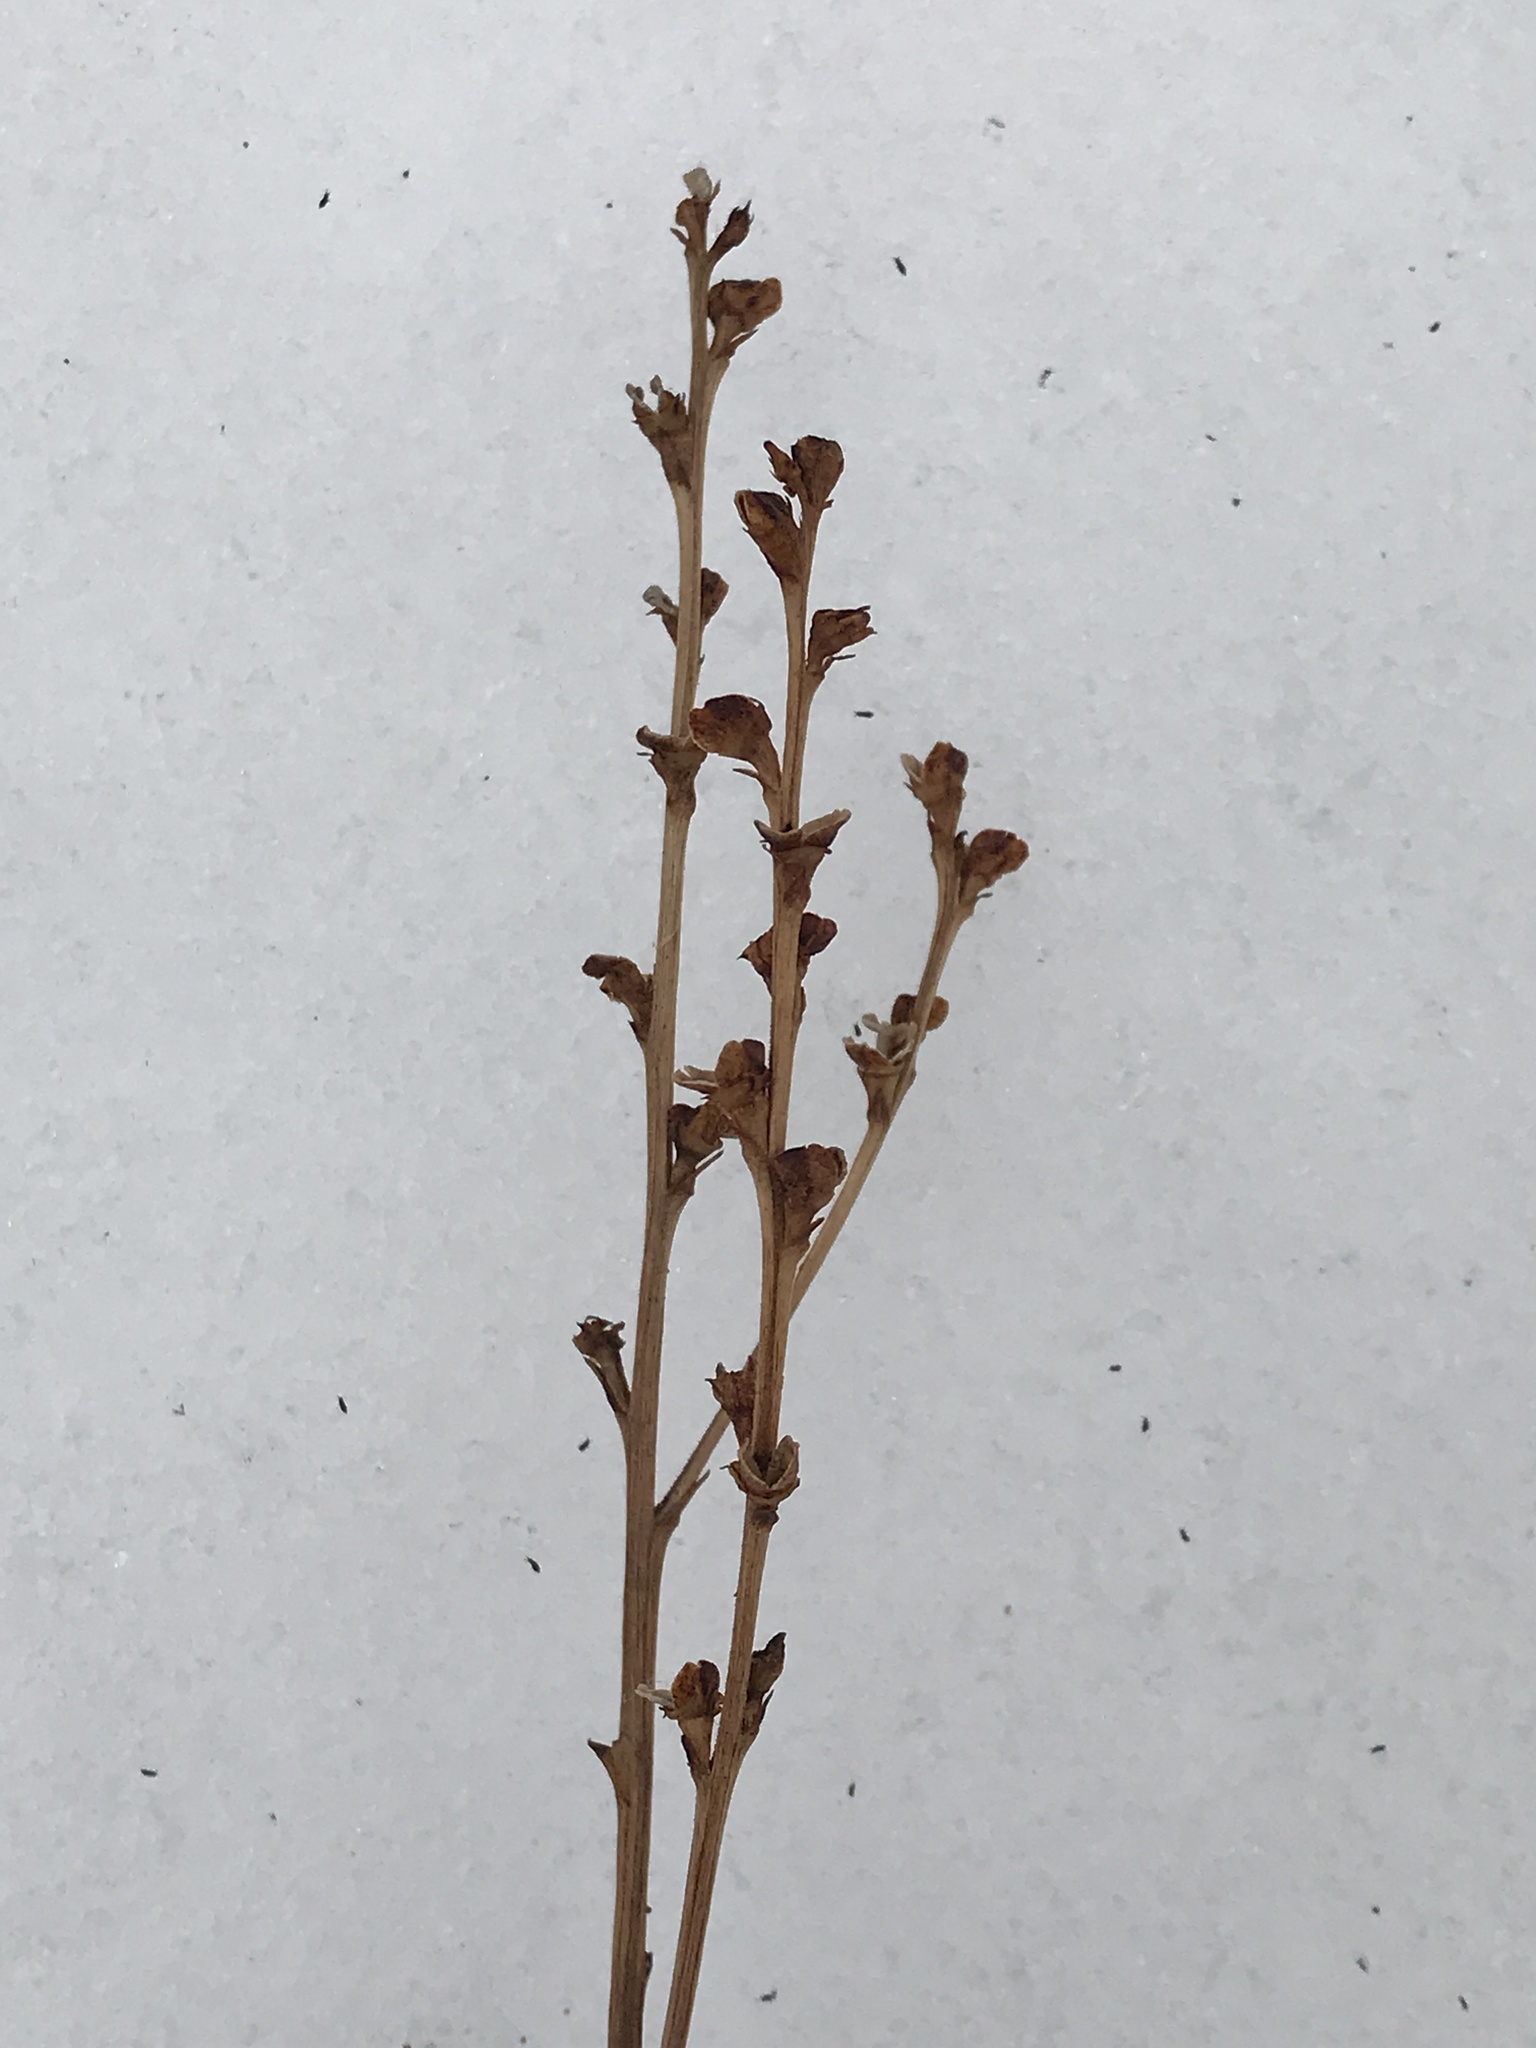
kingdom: Plantae
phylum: Tracheophyta
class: Magnoliopsida
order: Lamiales
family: Orobanchaceae
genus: Epifagus
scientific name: Epifagus virginiana
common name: Beechdrops
